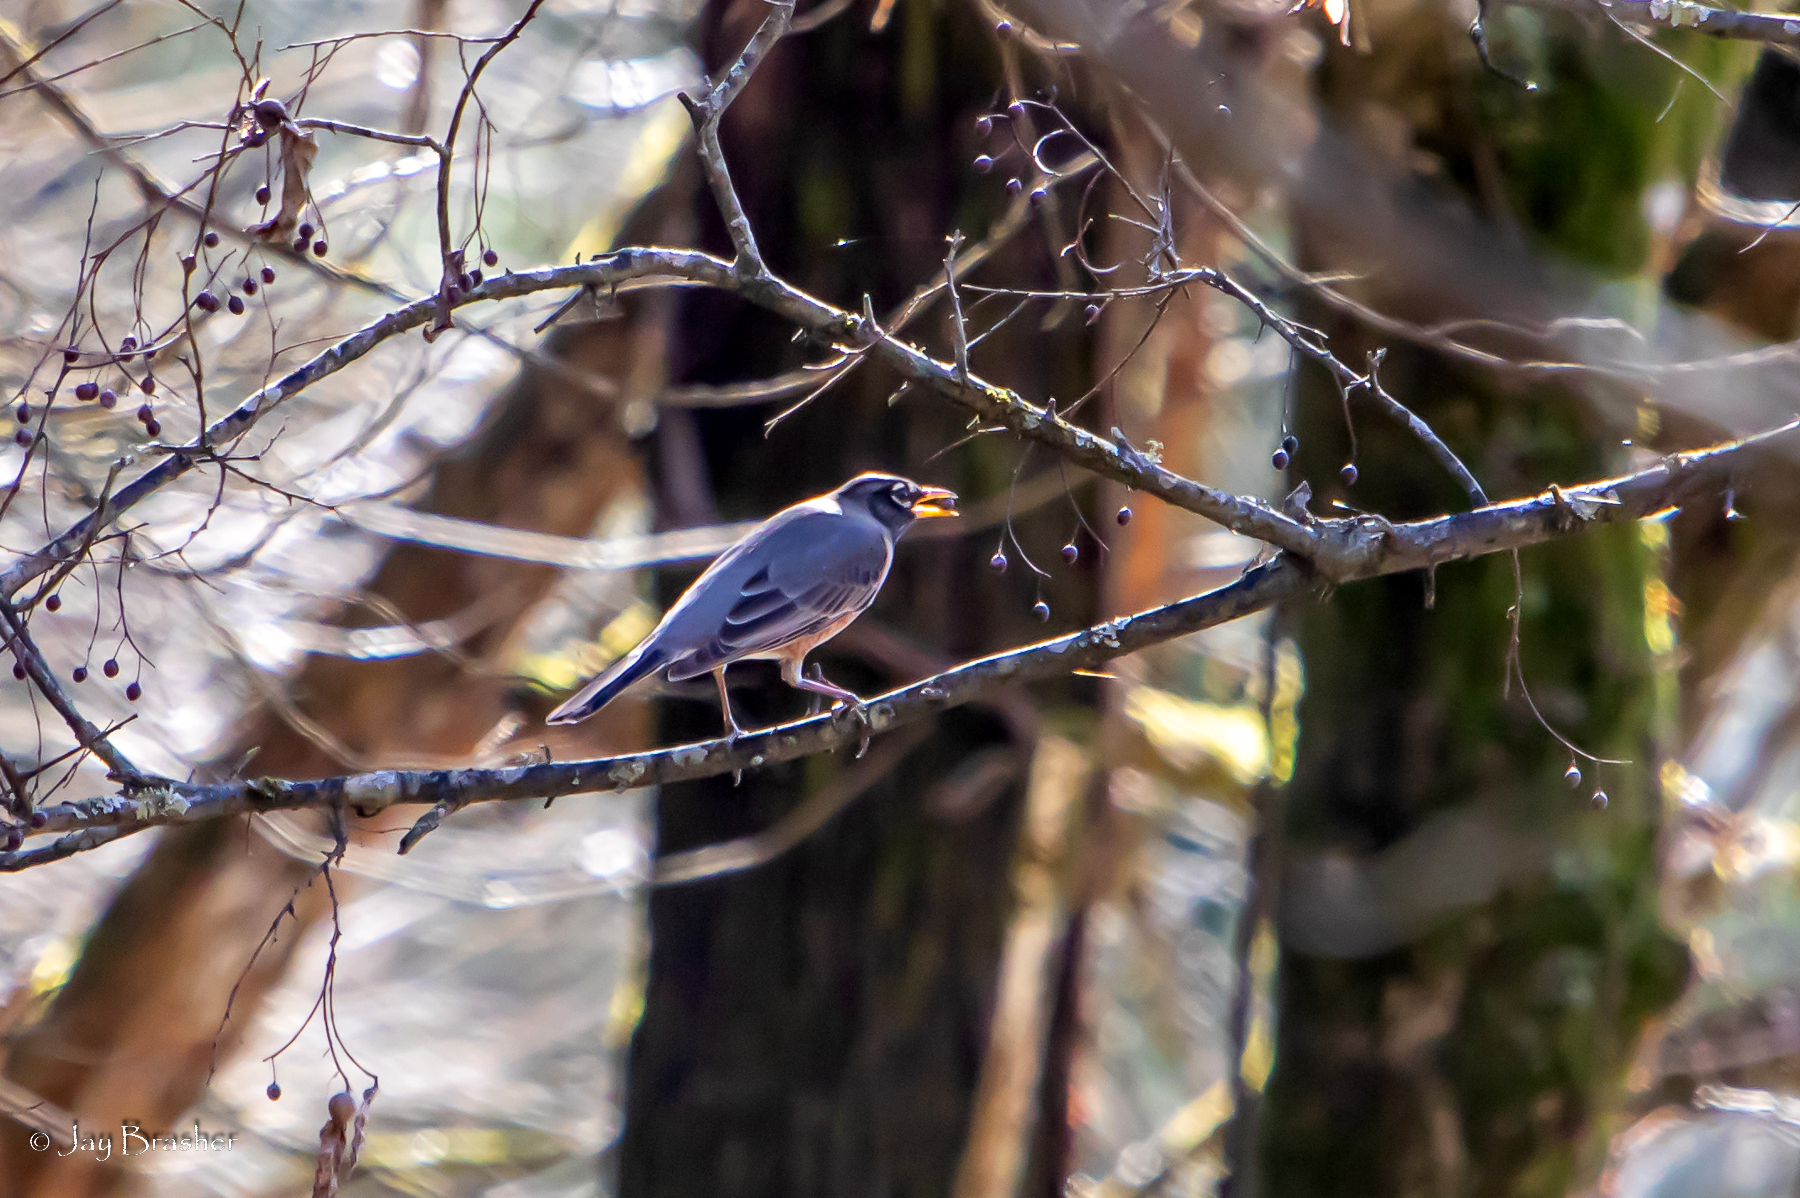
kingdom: Animalia
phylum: Chordata
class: Aves
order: Passeriformes
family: Turdidae
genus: Turdus
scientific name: Turdus migratorius
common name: American robin
